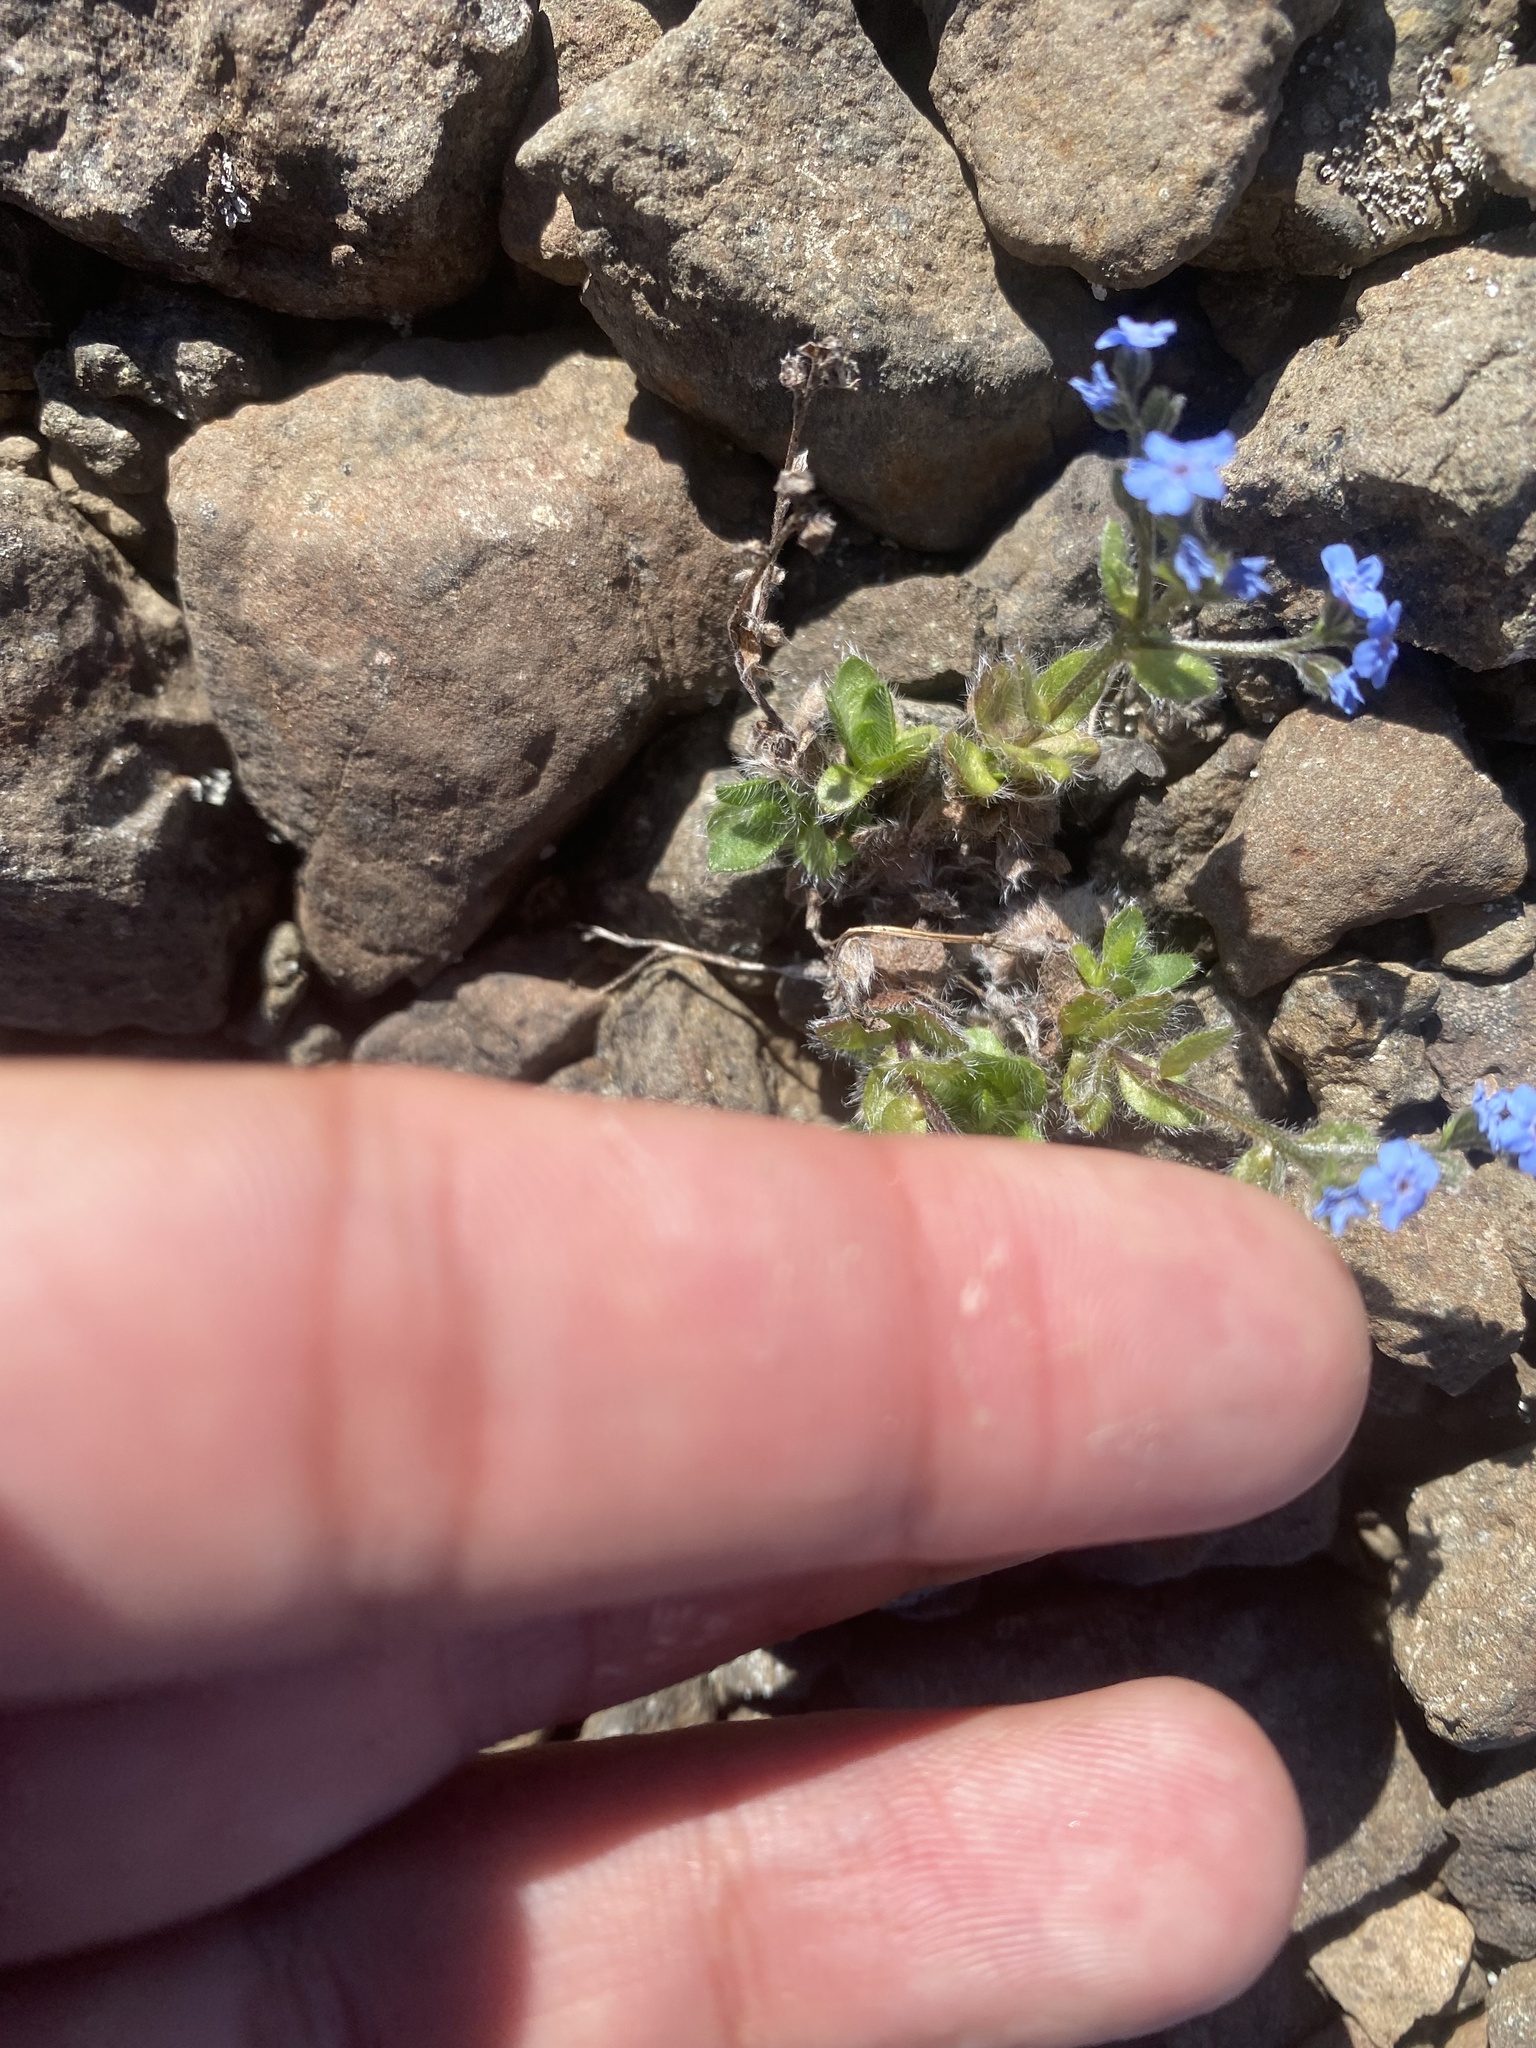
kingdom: Plantae
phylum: Tracheophyta
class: Magnoliopsida
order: Boraginales
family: Boraginaceae
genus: Eritrichium
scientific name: Eritrichium villosum
